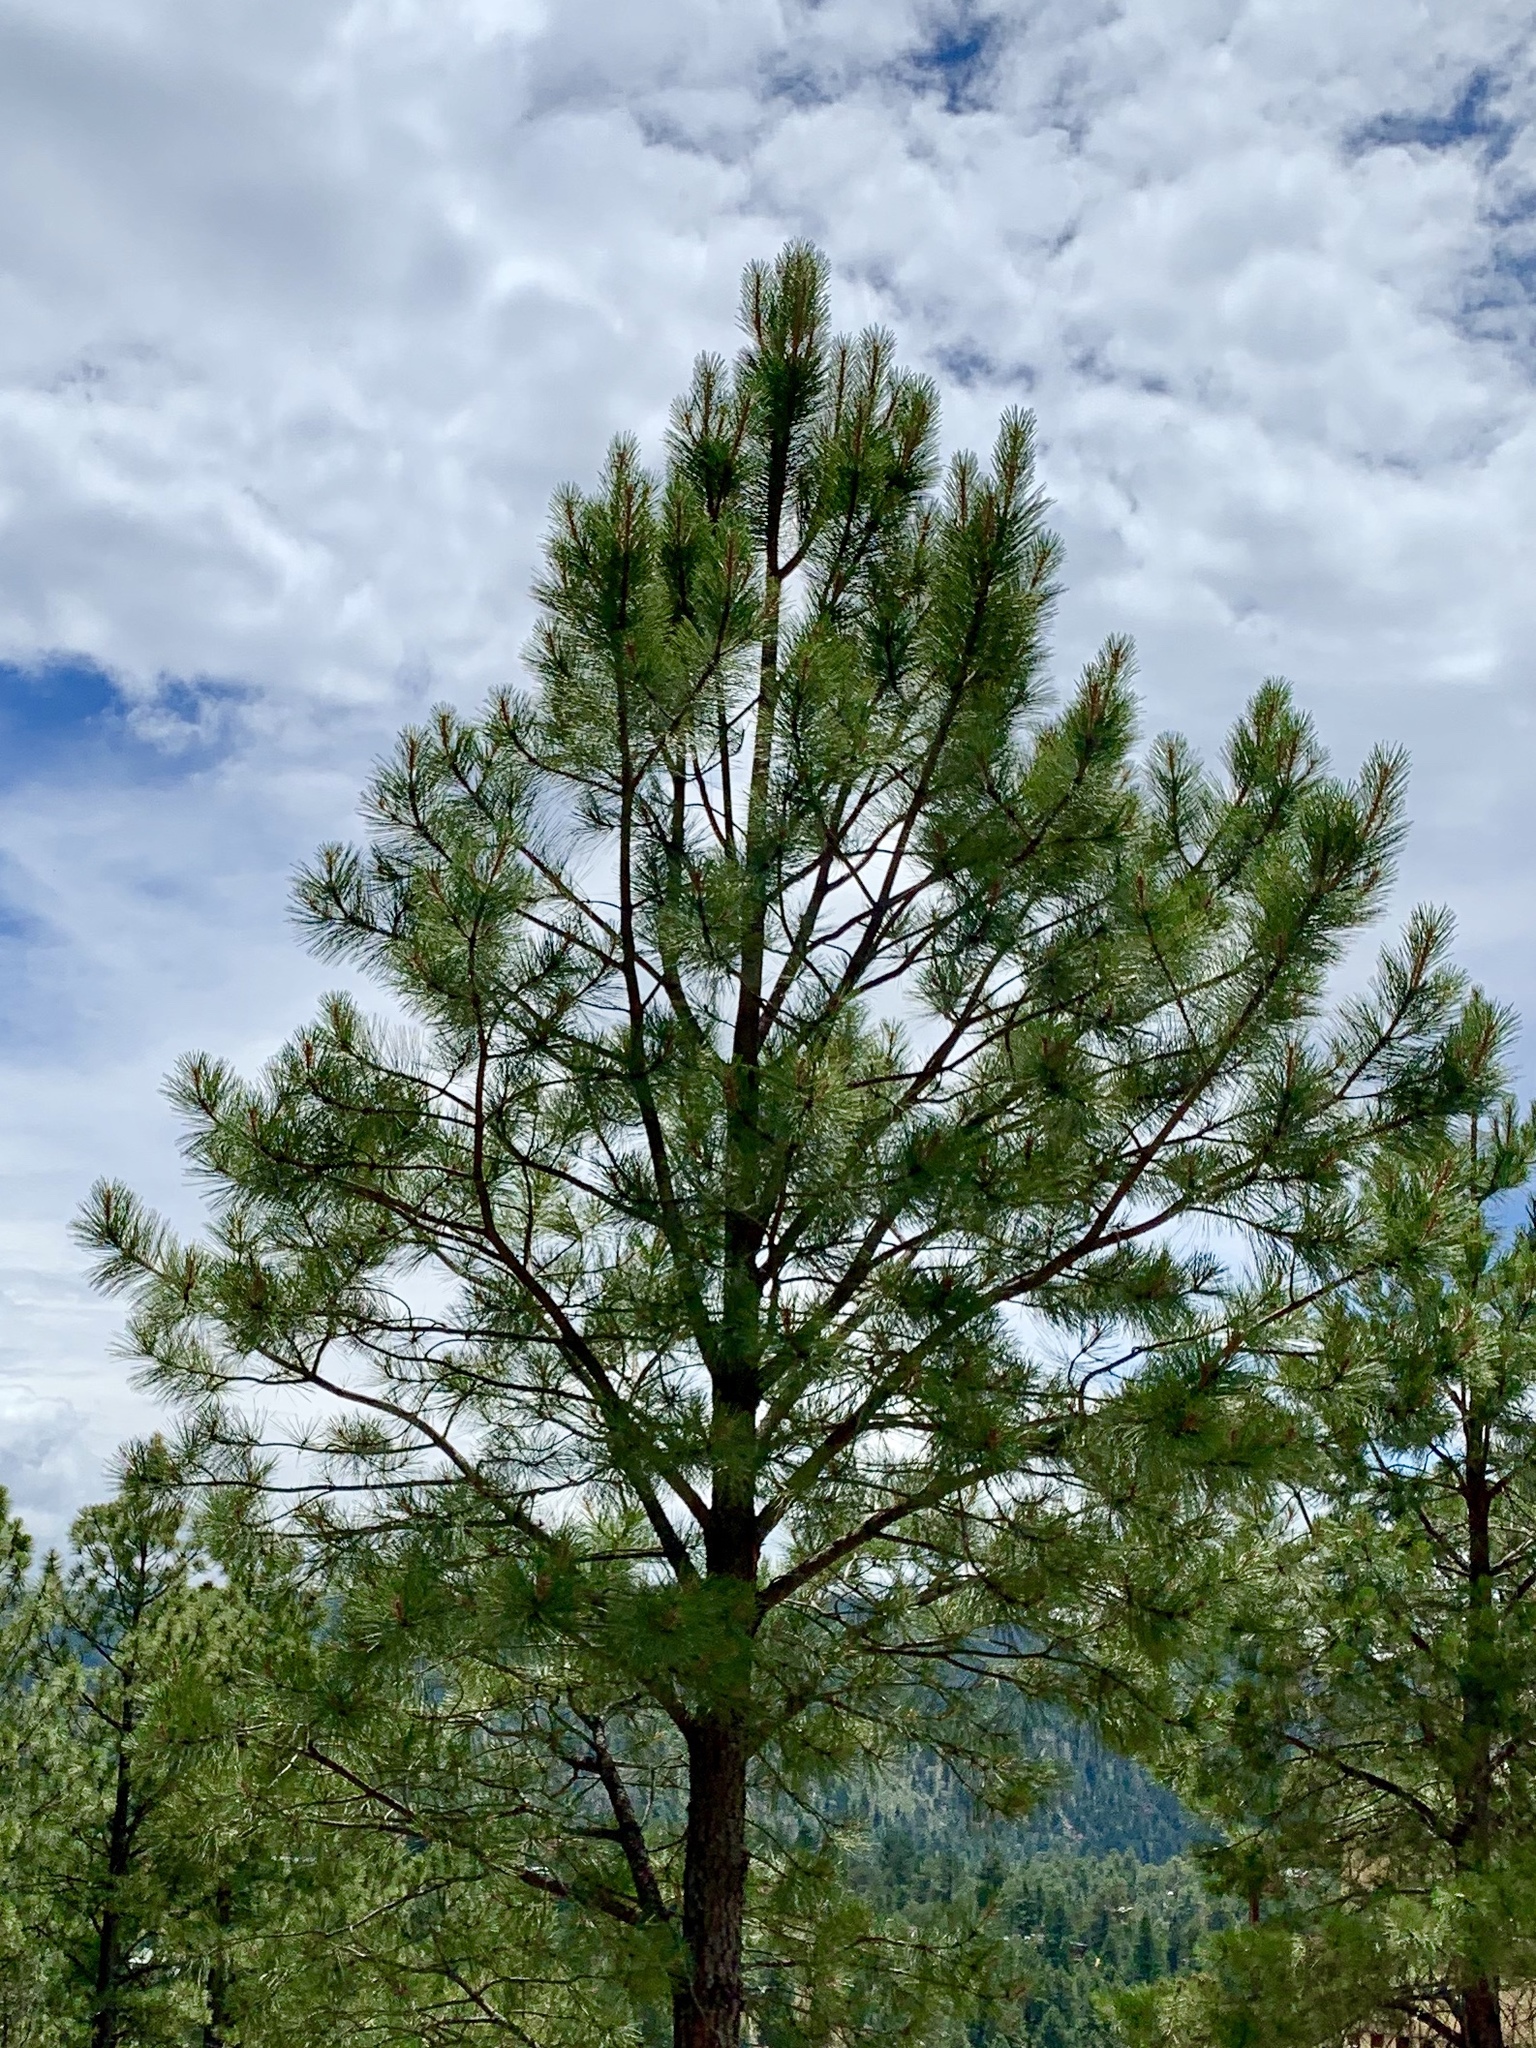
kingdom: Plantae
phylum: Tracheophyta
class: Pinopsida
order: Pinales
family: Pinaceae
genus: Pinus
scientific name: Pinus ponderosa
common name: Western yellow-pine
